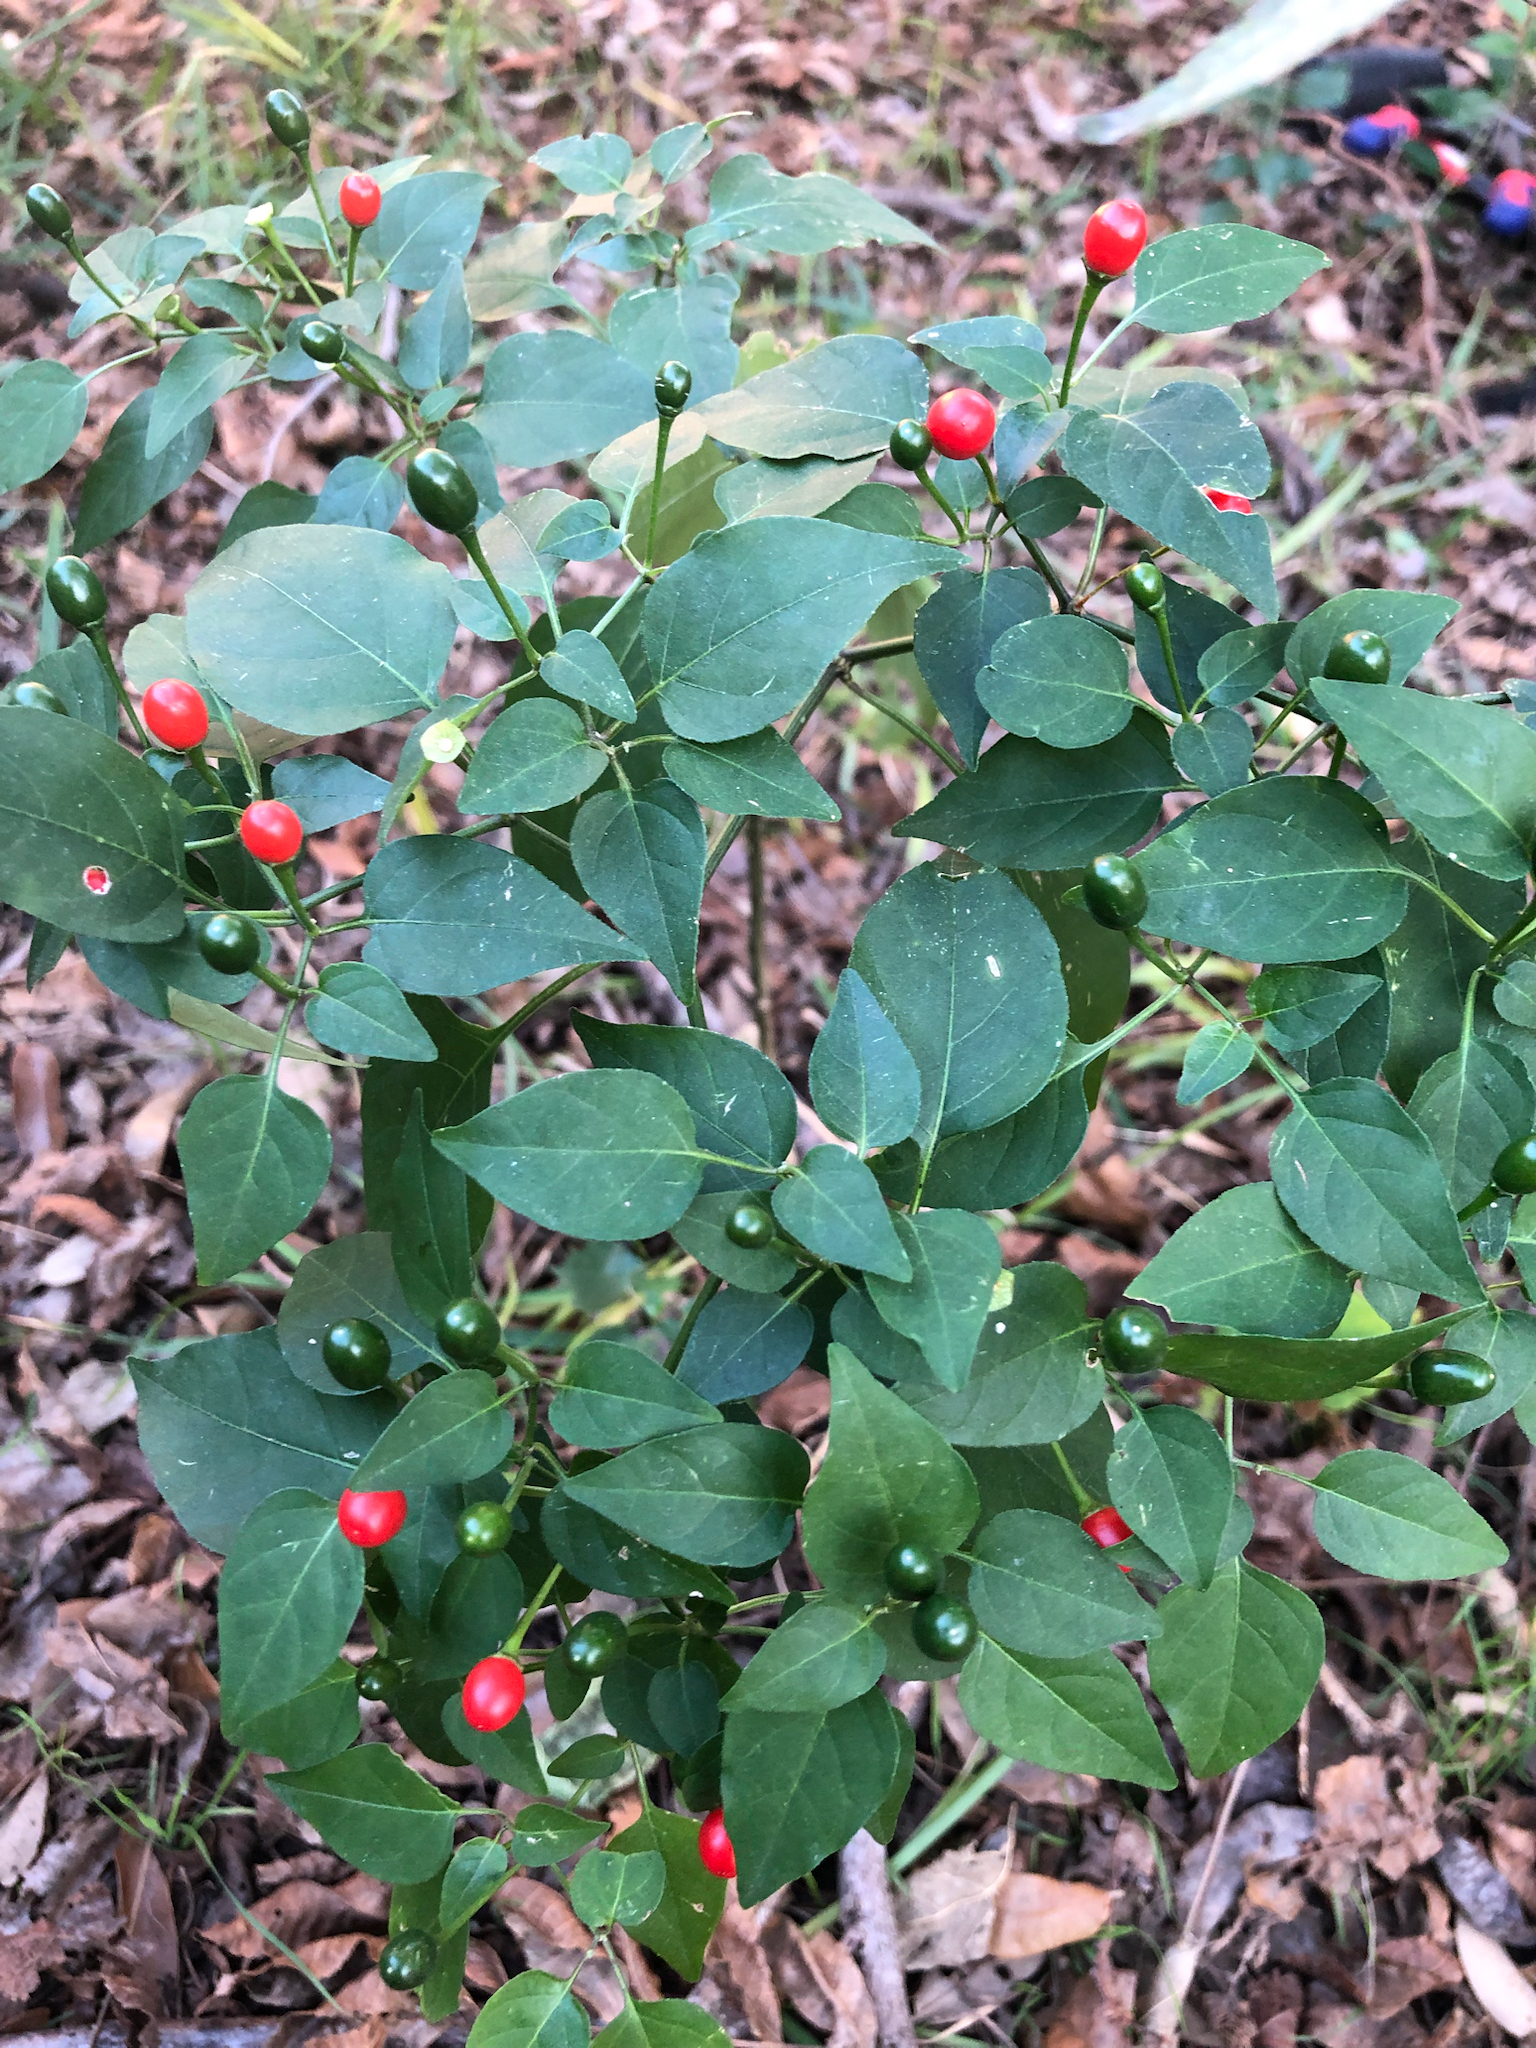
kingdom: Plantae
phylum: Tracheophyta
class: Magnoliopsida
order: Solanales
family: Solanaceae
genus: Capsicum
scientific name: Capsicum annuum
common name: Sweet pepper
